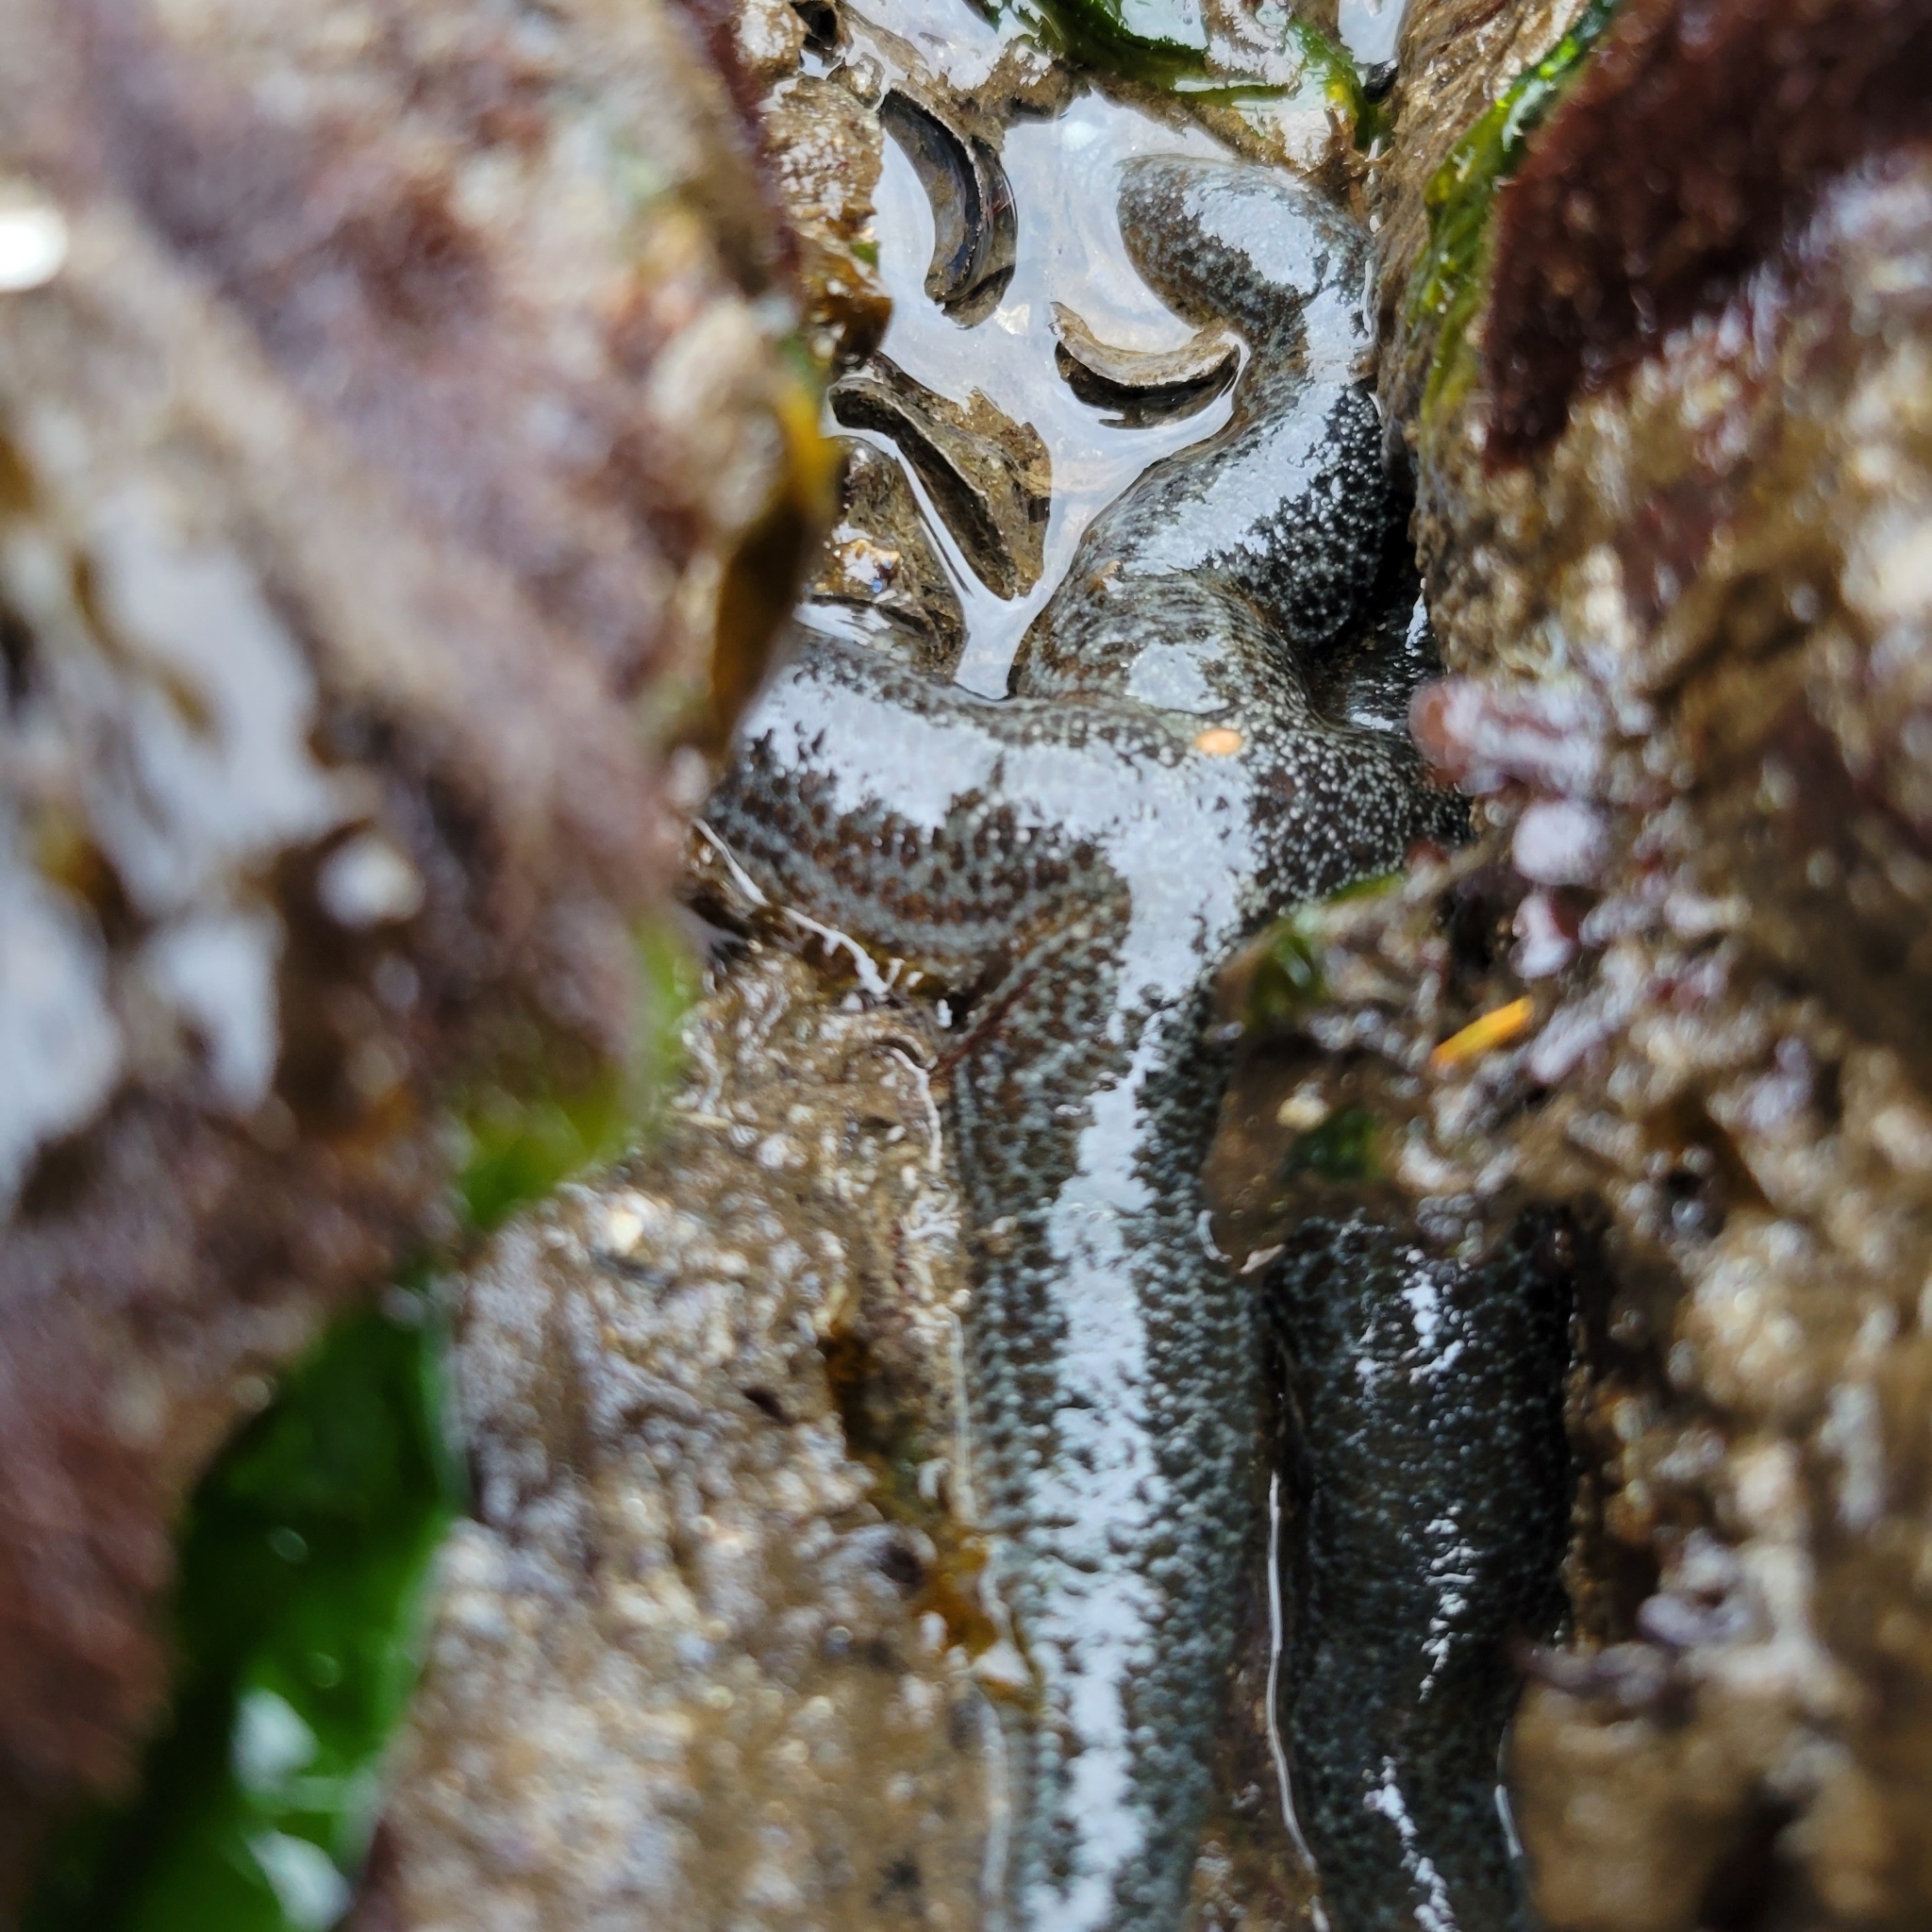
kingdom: Animalia
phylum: Echinodermata
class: Asteroidea
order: Forcipulatida
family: Asteriidae
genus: Evasterias
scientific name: Evasterias troschelii
